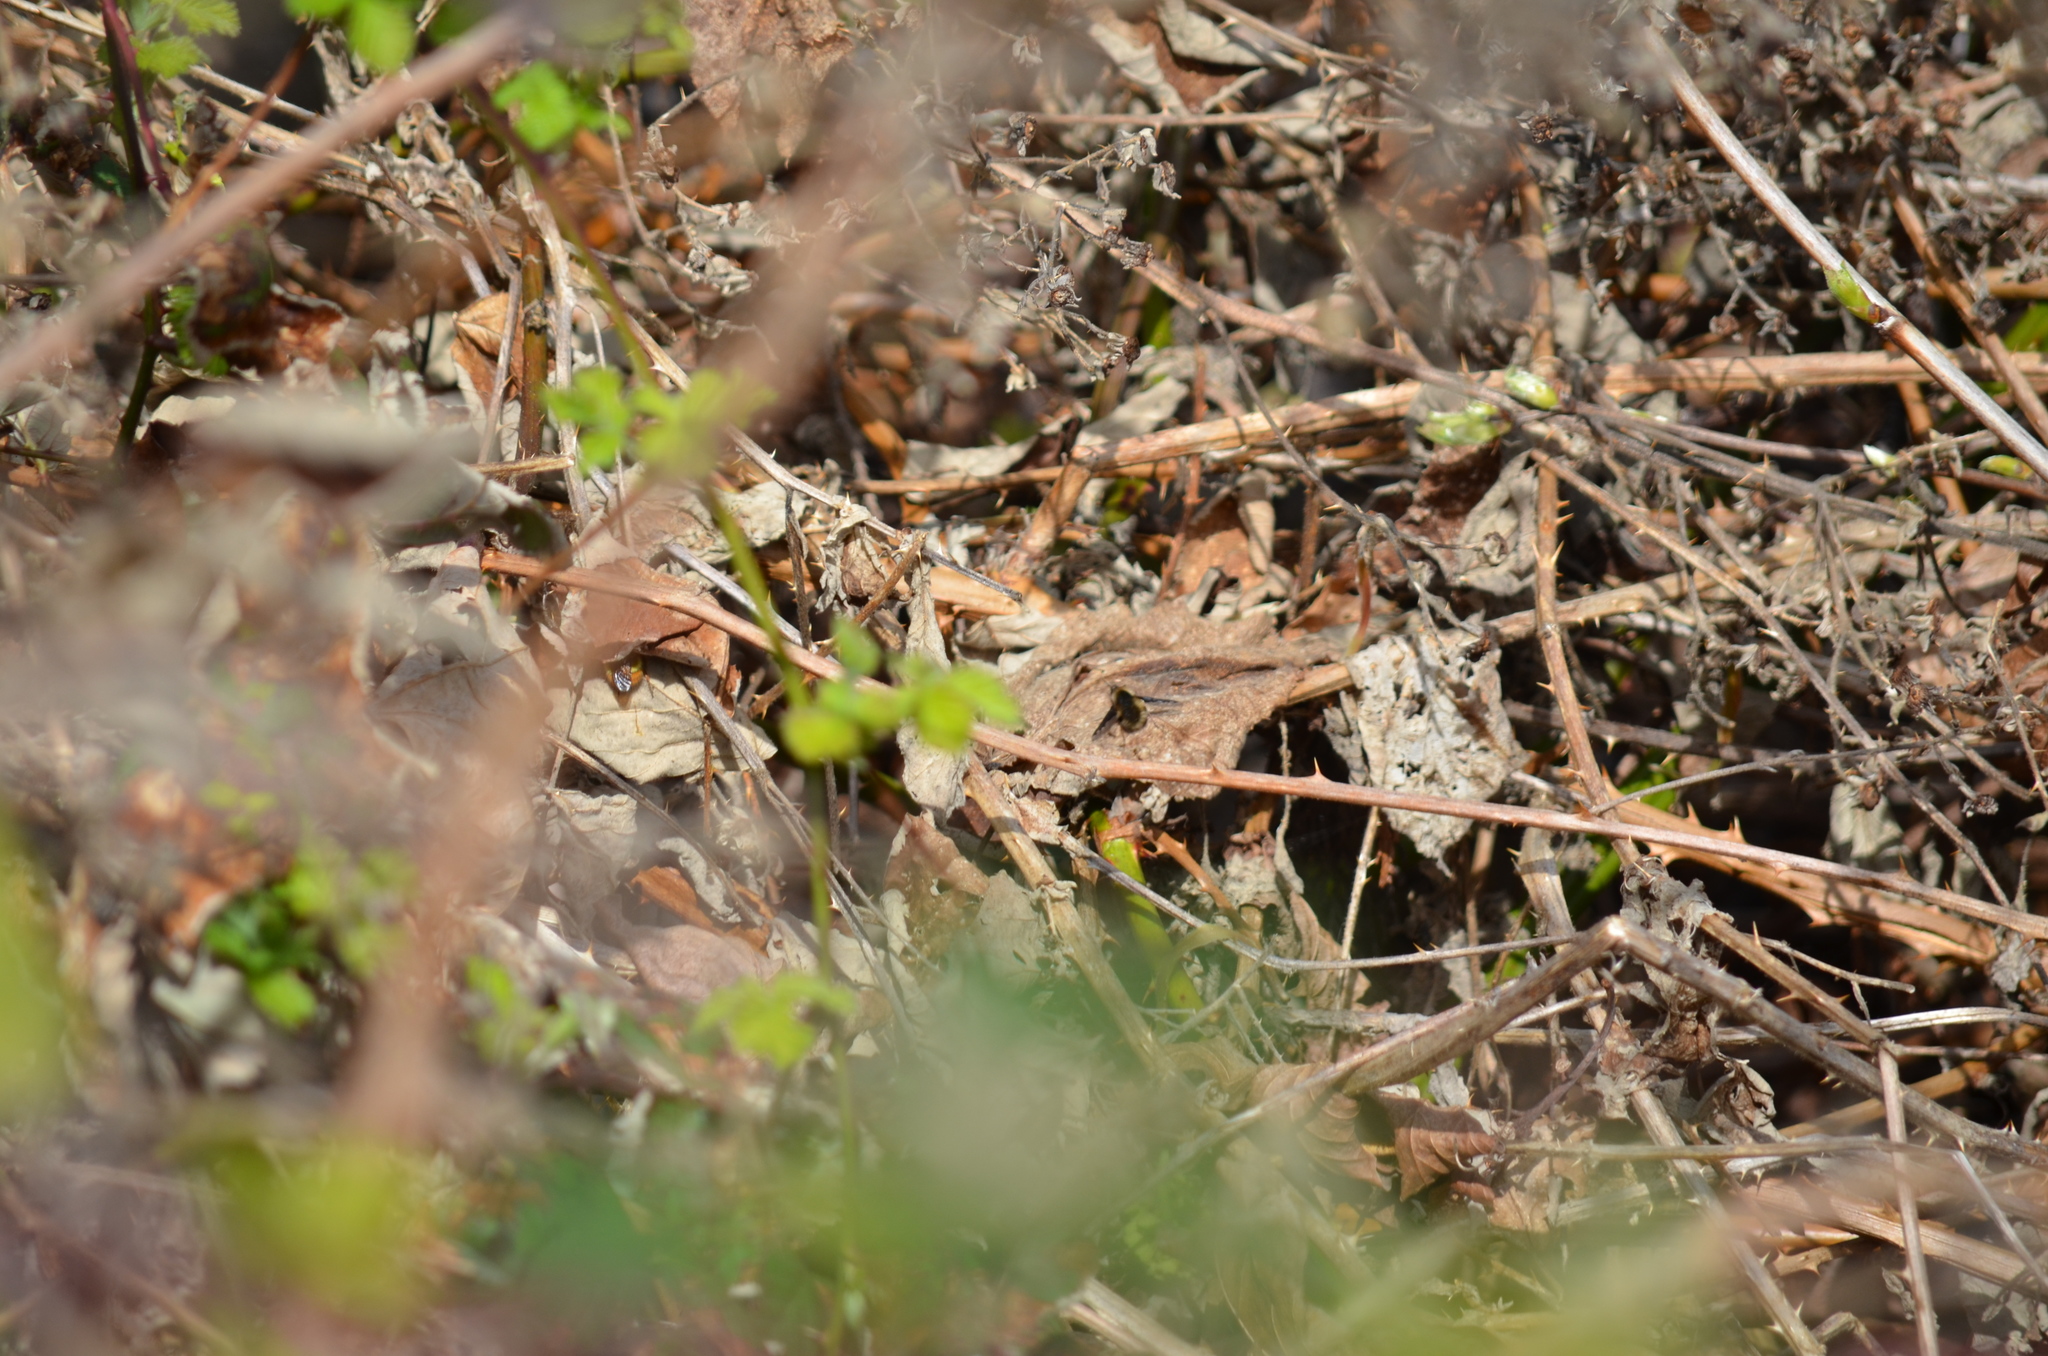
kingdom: Animalia
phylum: Arthropoda
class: Insecta
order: Diptera
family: Bombyliidae
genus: Bombylius
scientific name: Bombylius major
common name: Bee fly
